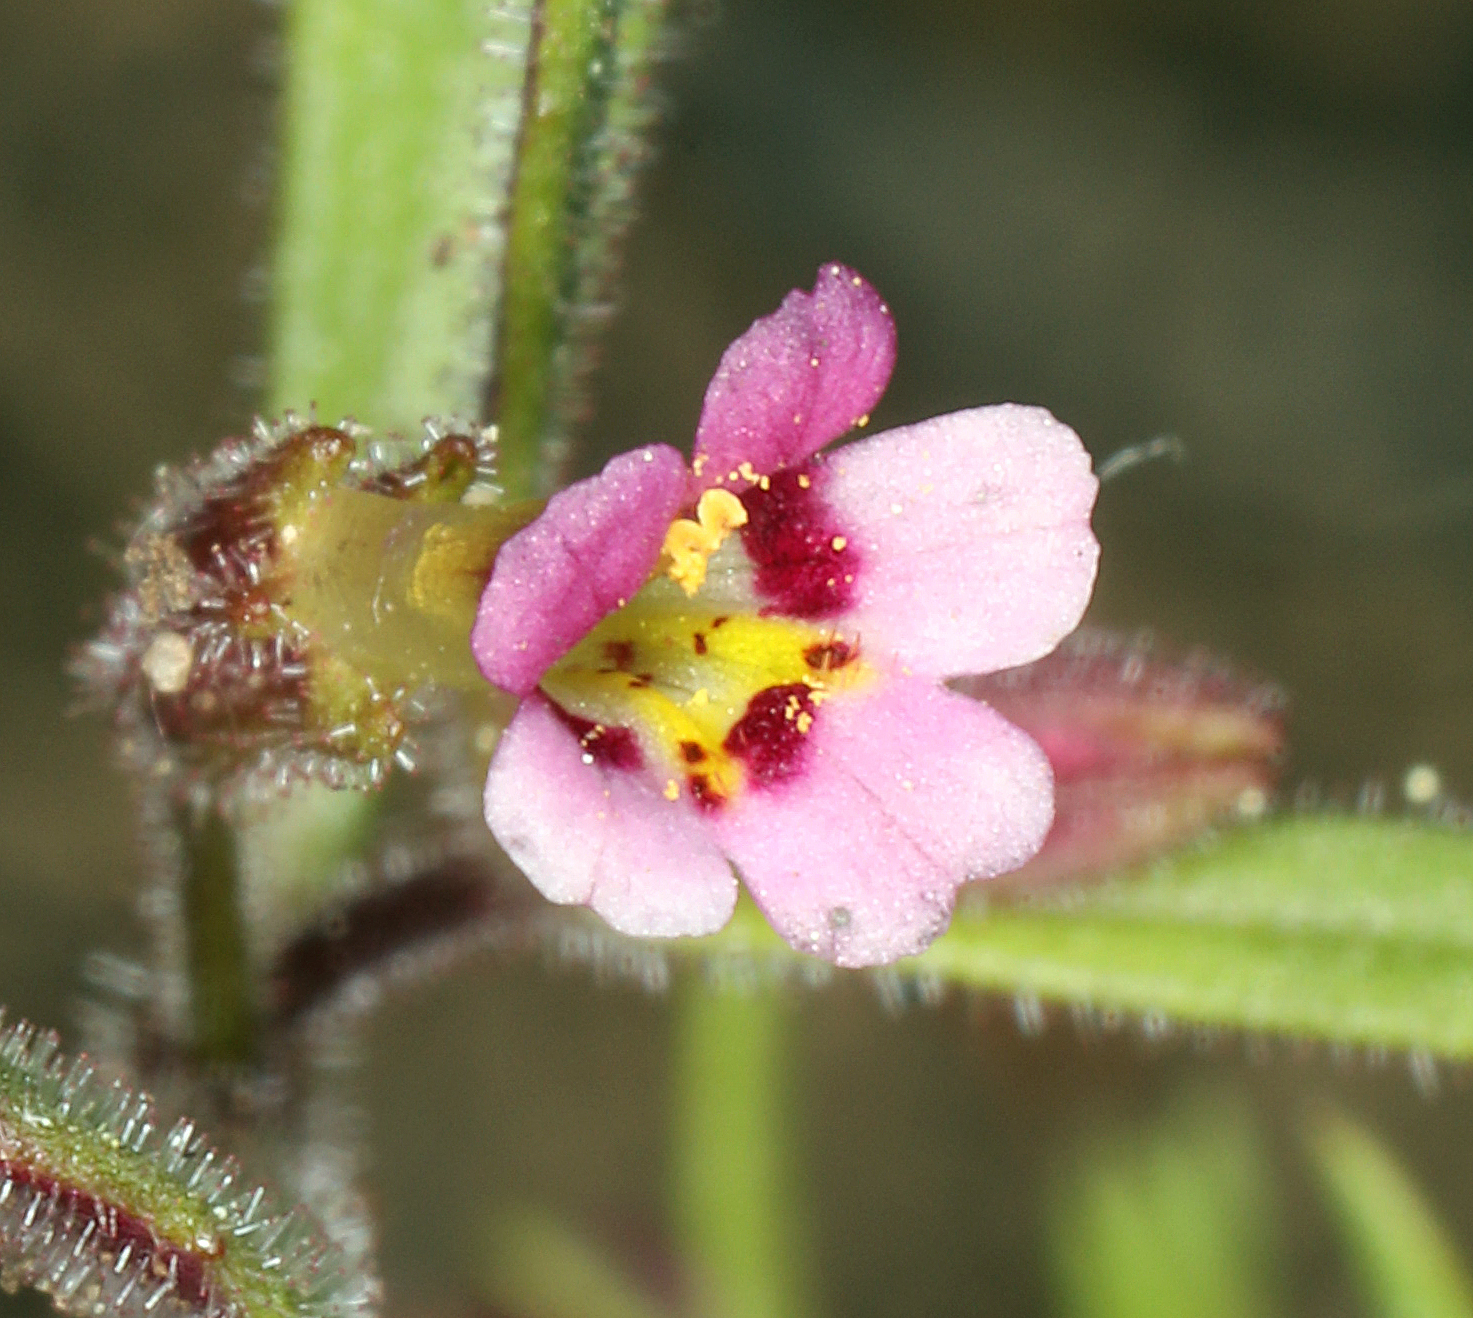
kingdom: Plantae
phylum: Tracheophyta
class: Magnoliopsida
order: Lamiales
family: Phrymaceae
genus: Erythranthe
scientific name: Erythranthe breweri
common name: Brewer's monkeyflower
